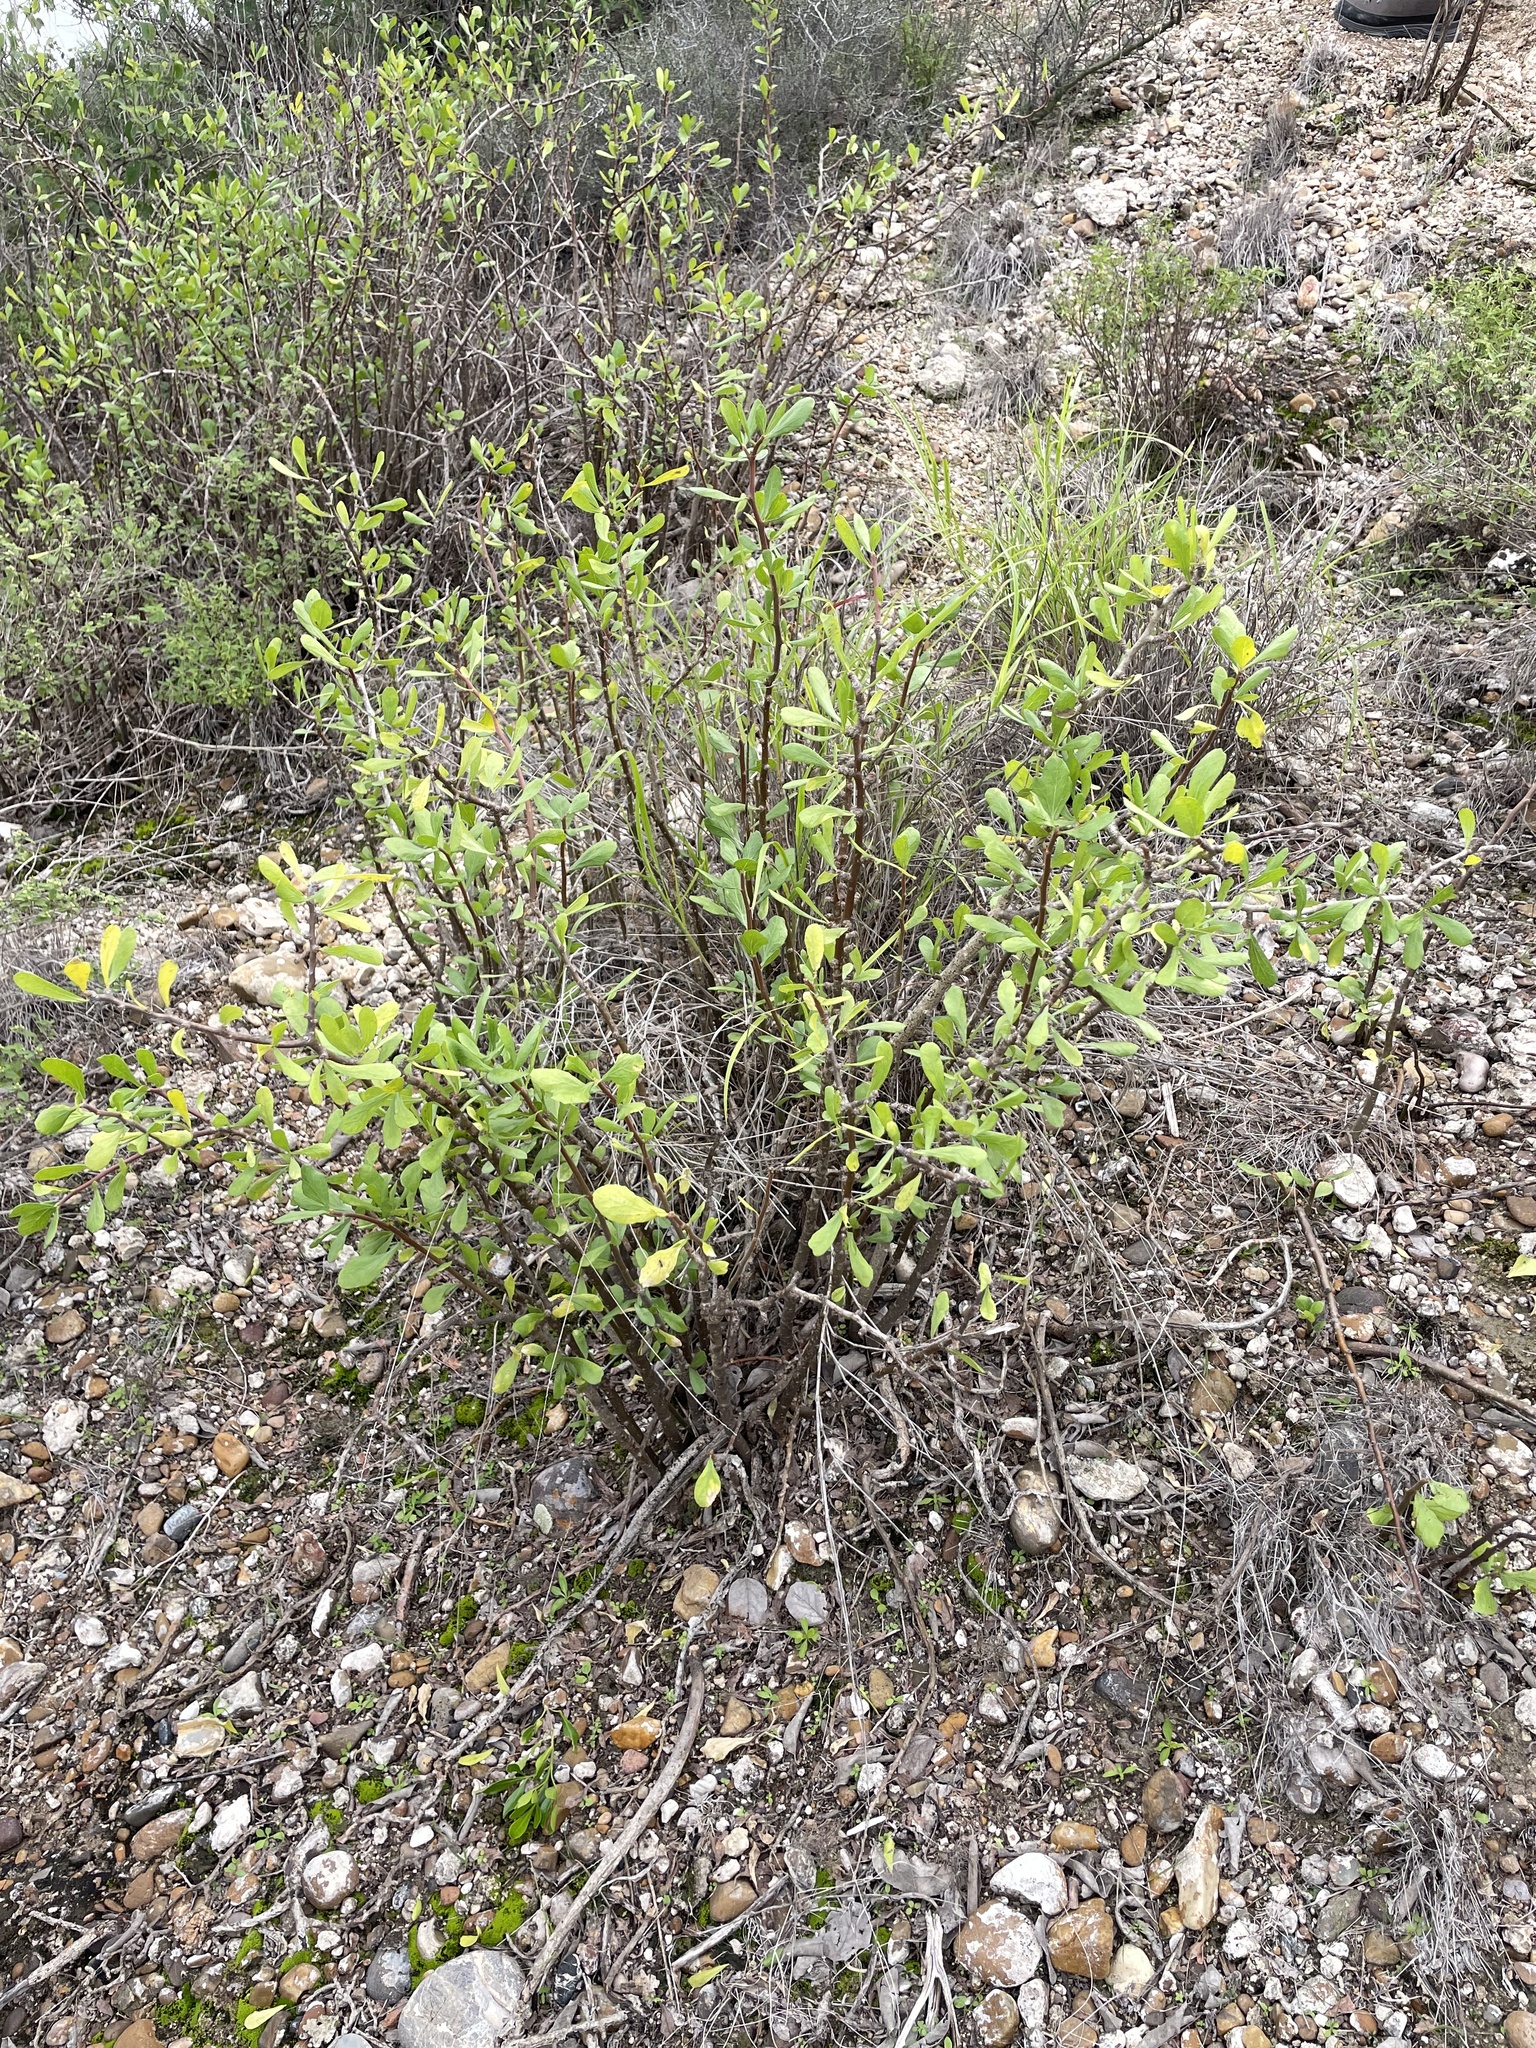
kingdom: Plantae
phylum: Tracheophyta
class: Magnoliopsida
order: Malpighiales
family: Euphorbiaceae
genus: Jatropha
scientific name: Jatropha dioica
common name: Leatherstem
